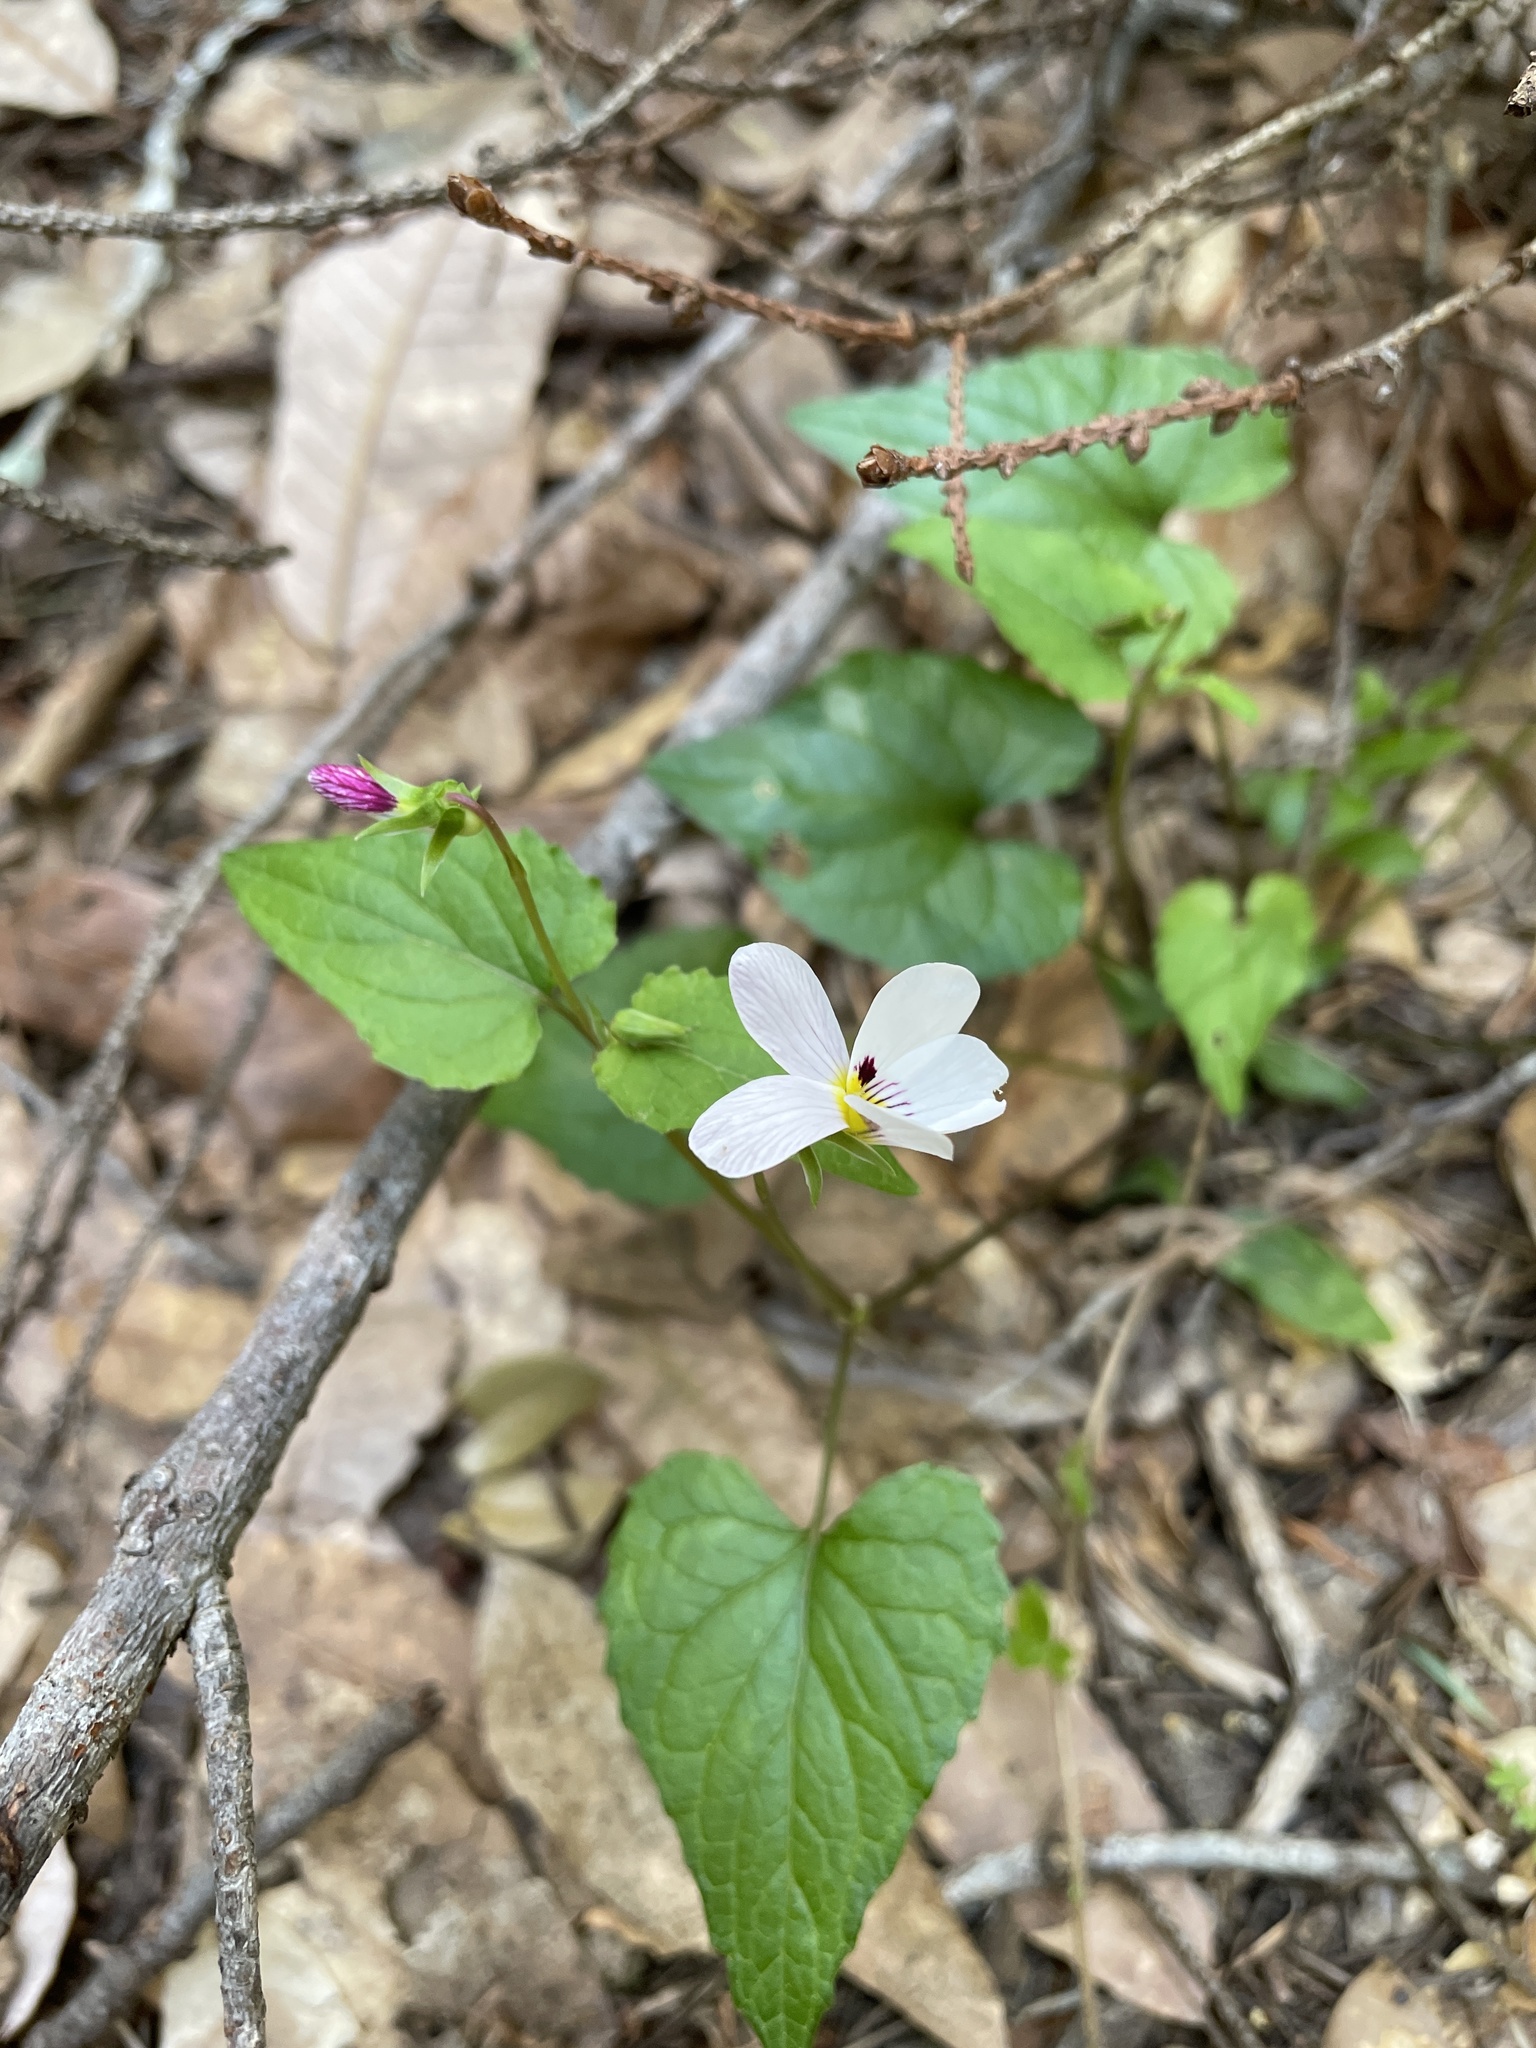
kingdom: Plantae
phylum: Tracheophyta
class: Magnoliopsida
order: Malpighiales
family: Violaceae
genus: Viola
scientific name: Viola ocellata
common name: Western heart's ease
